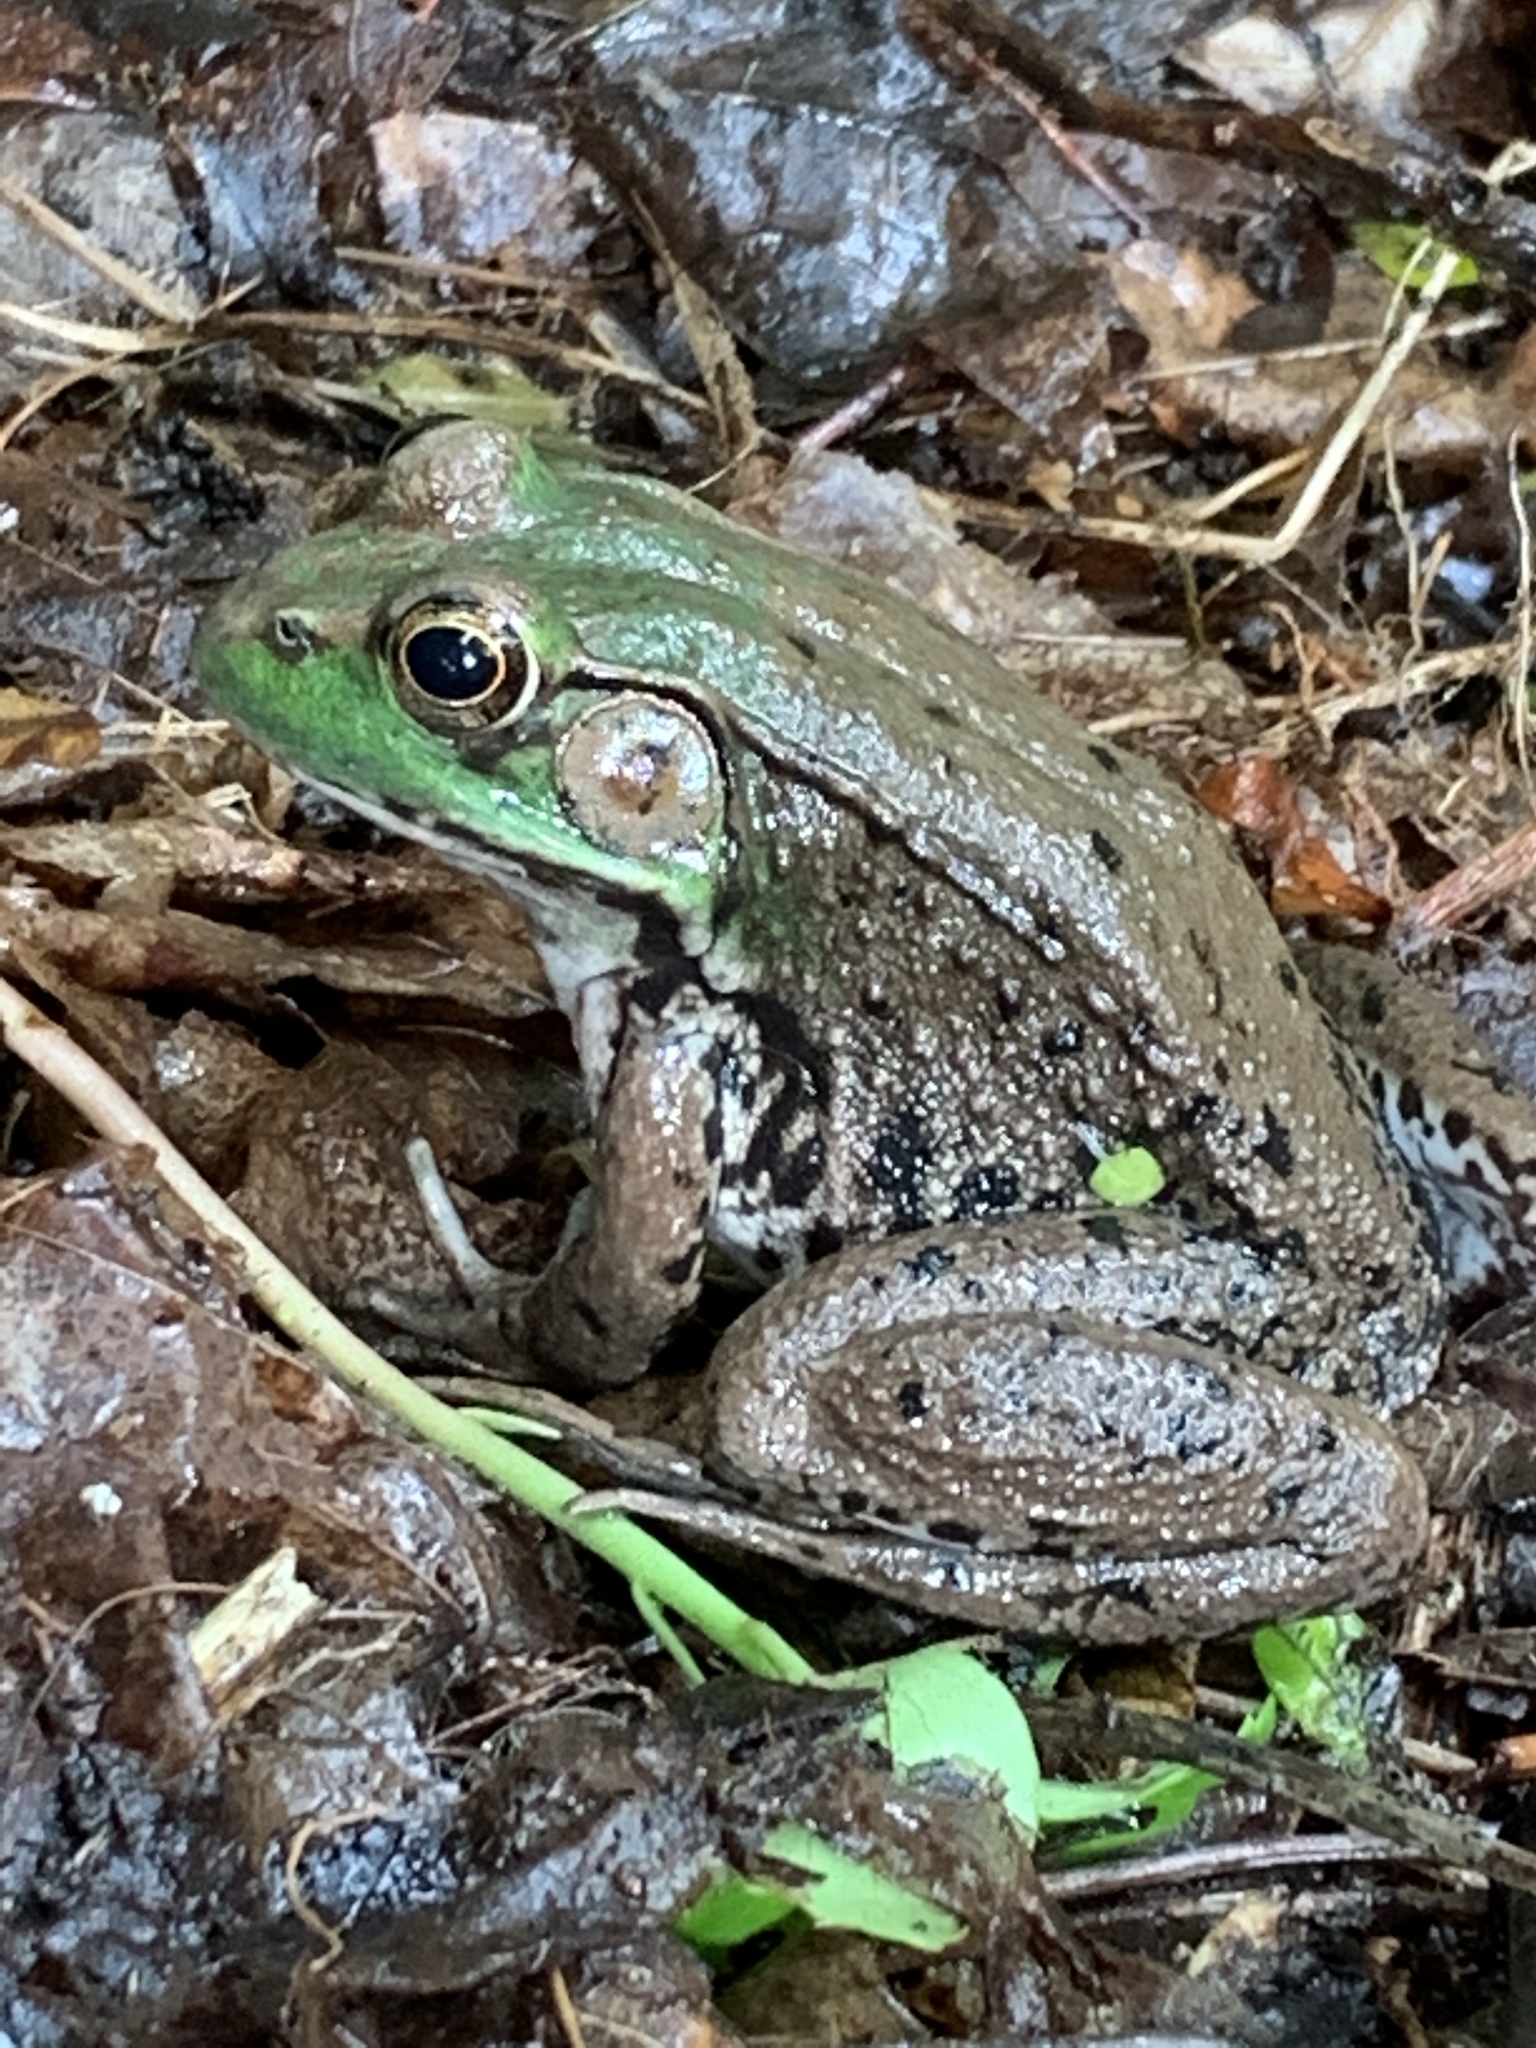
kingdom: Animalia
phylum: Chordata
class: Amphibia
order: Anura
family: Ranidae
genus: Lithobates
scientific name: Lithobates clamitans
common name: Green frog
